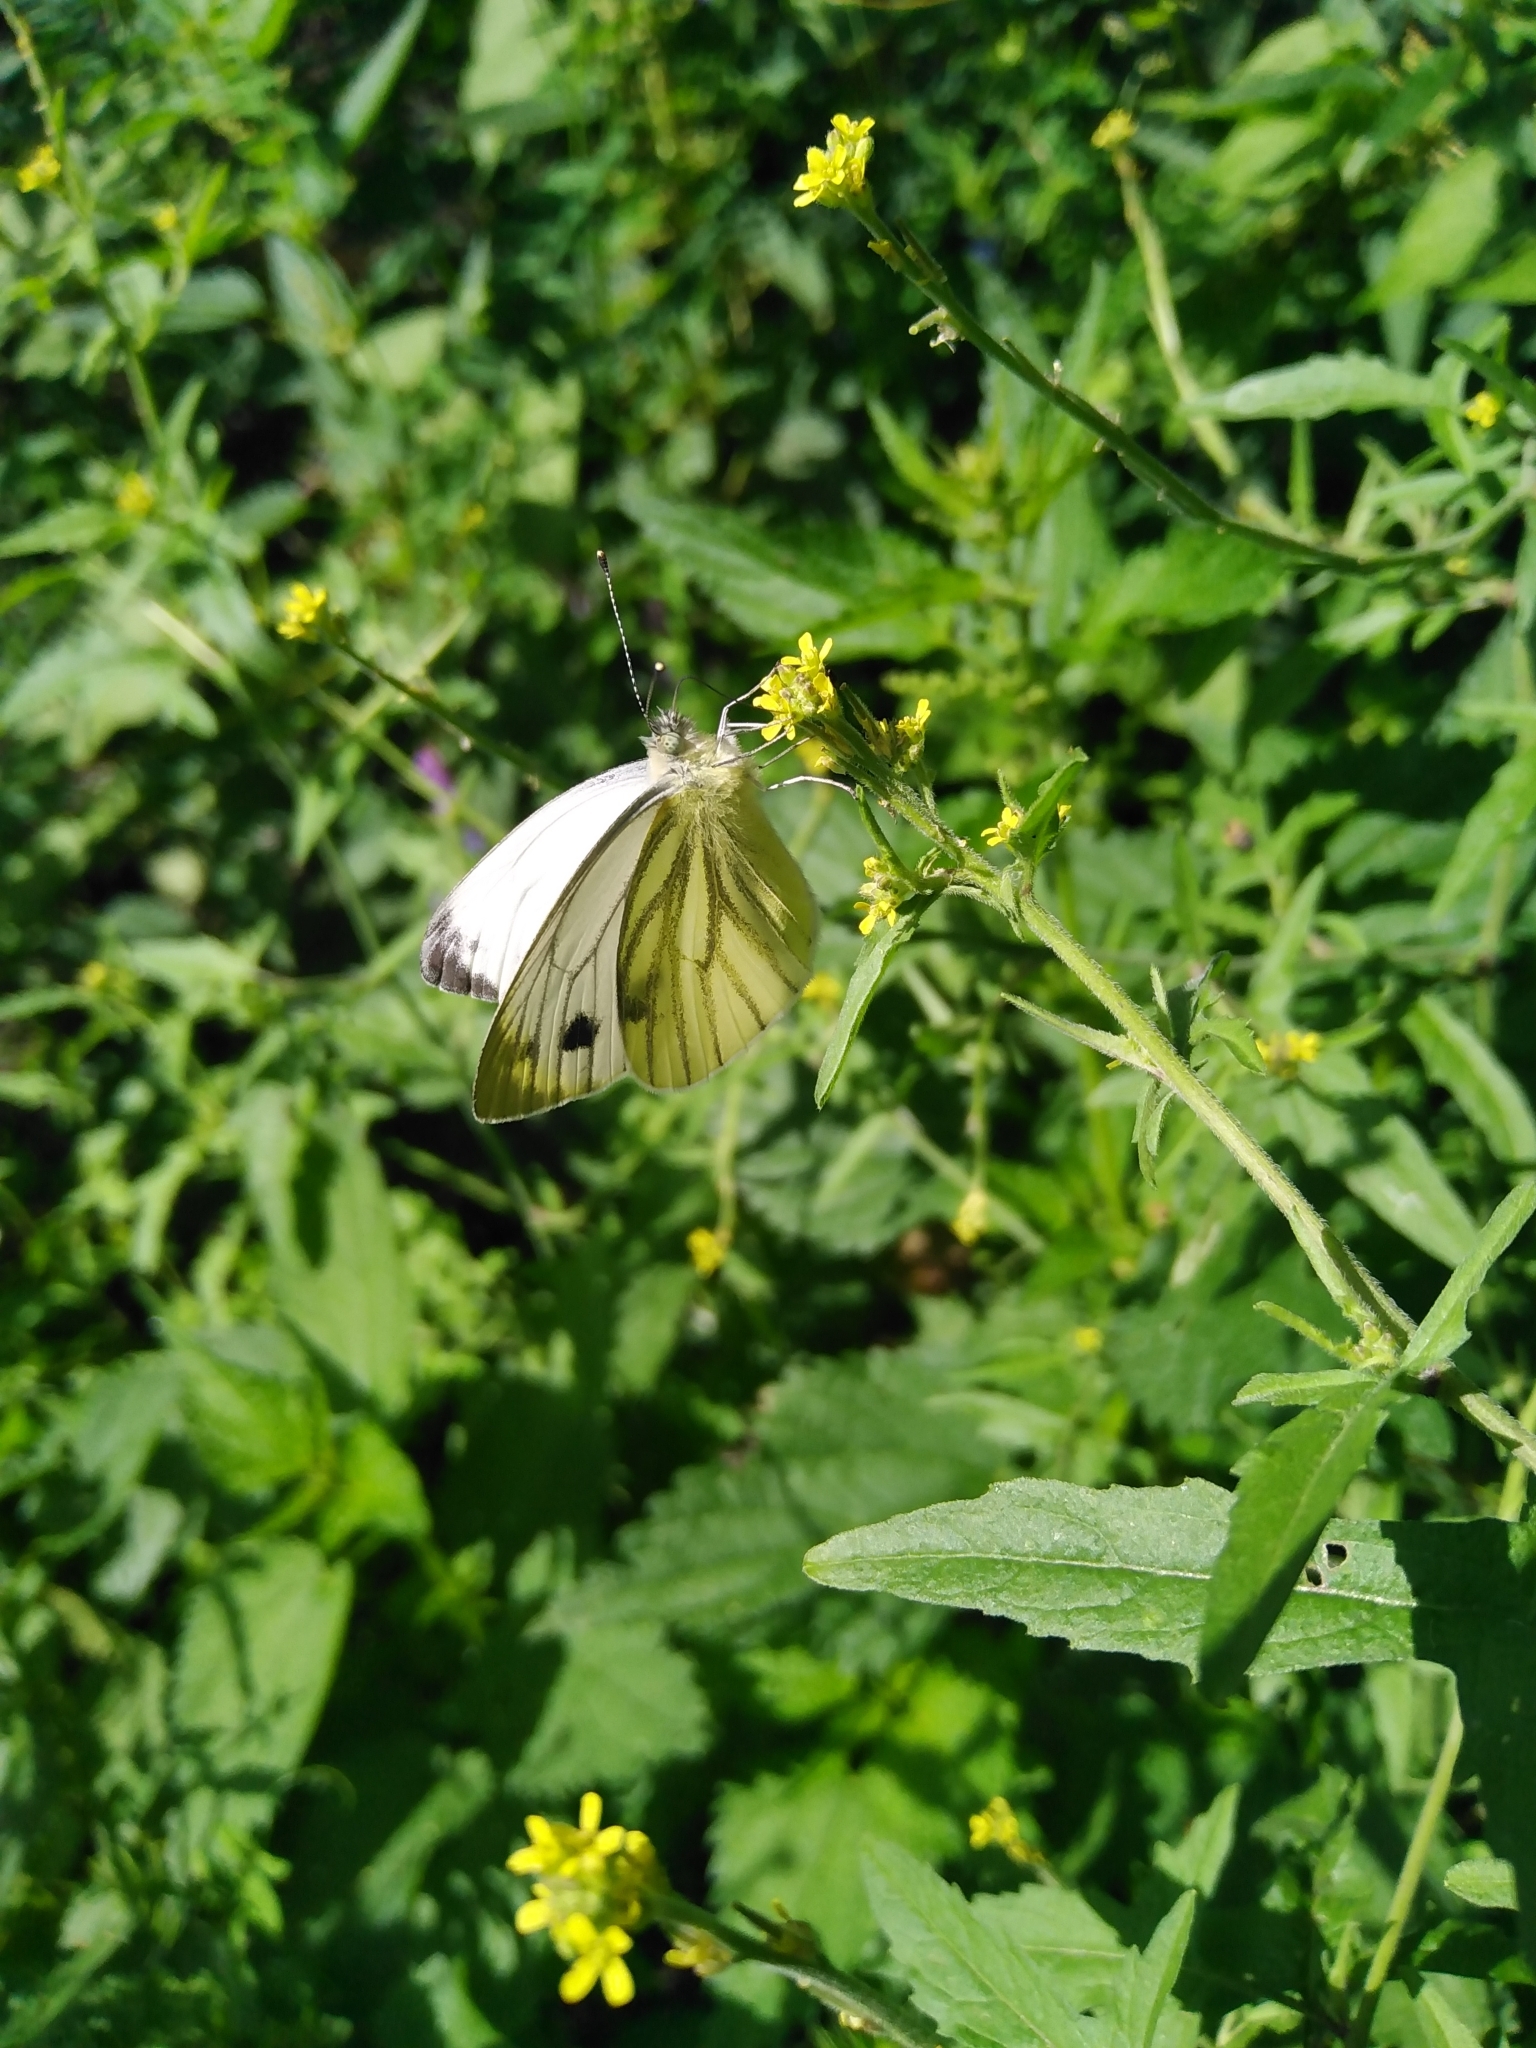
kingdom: Animalia
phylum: Arthropoda
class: Insecta
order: Lepidoptera
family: Pieridae
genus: Pieris
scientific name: Pieris napi
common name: Green-veined white
